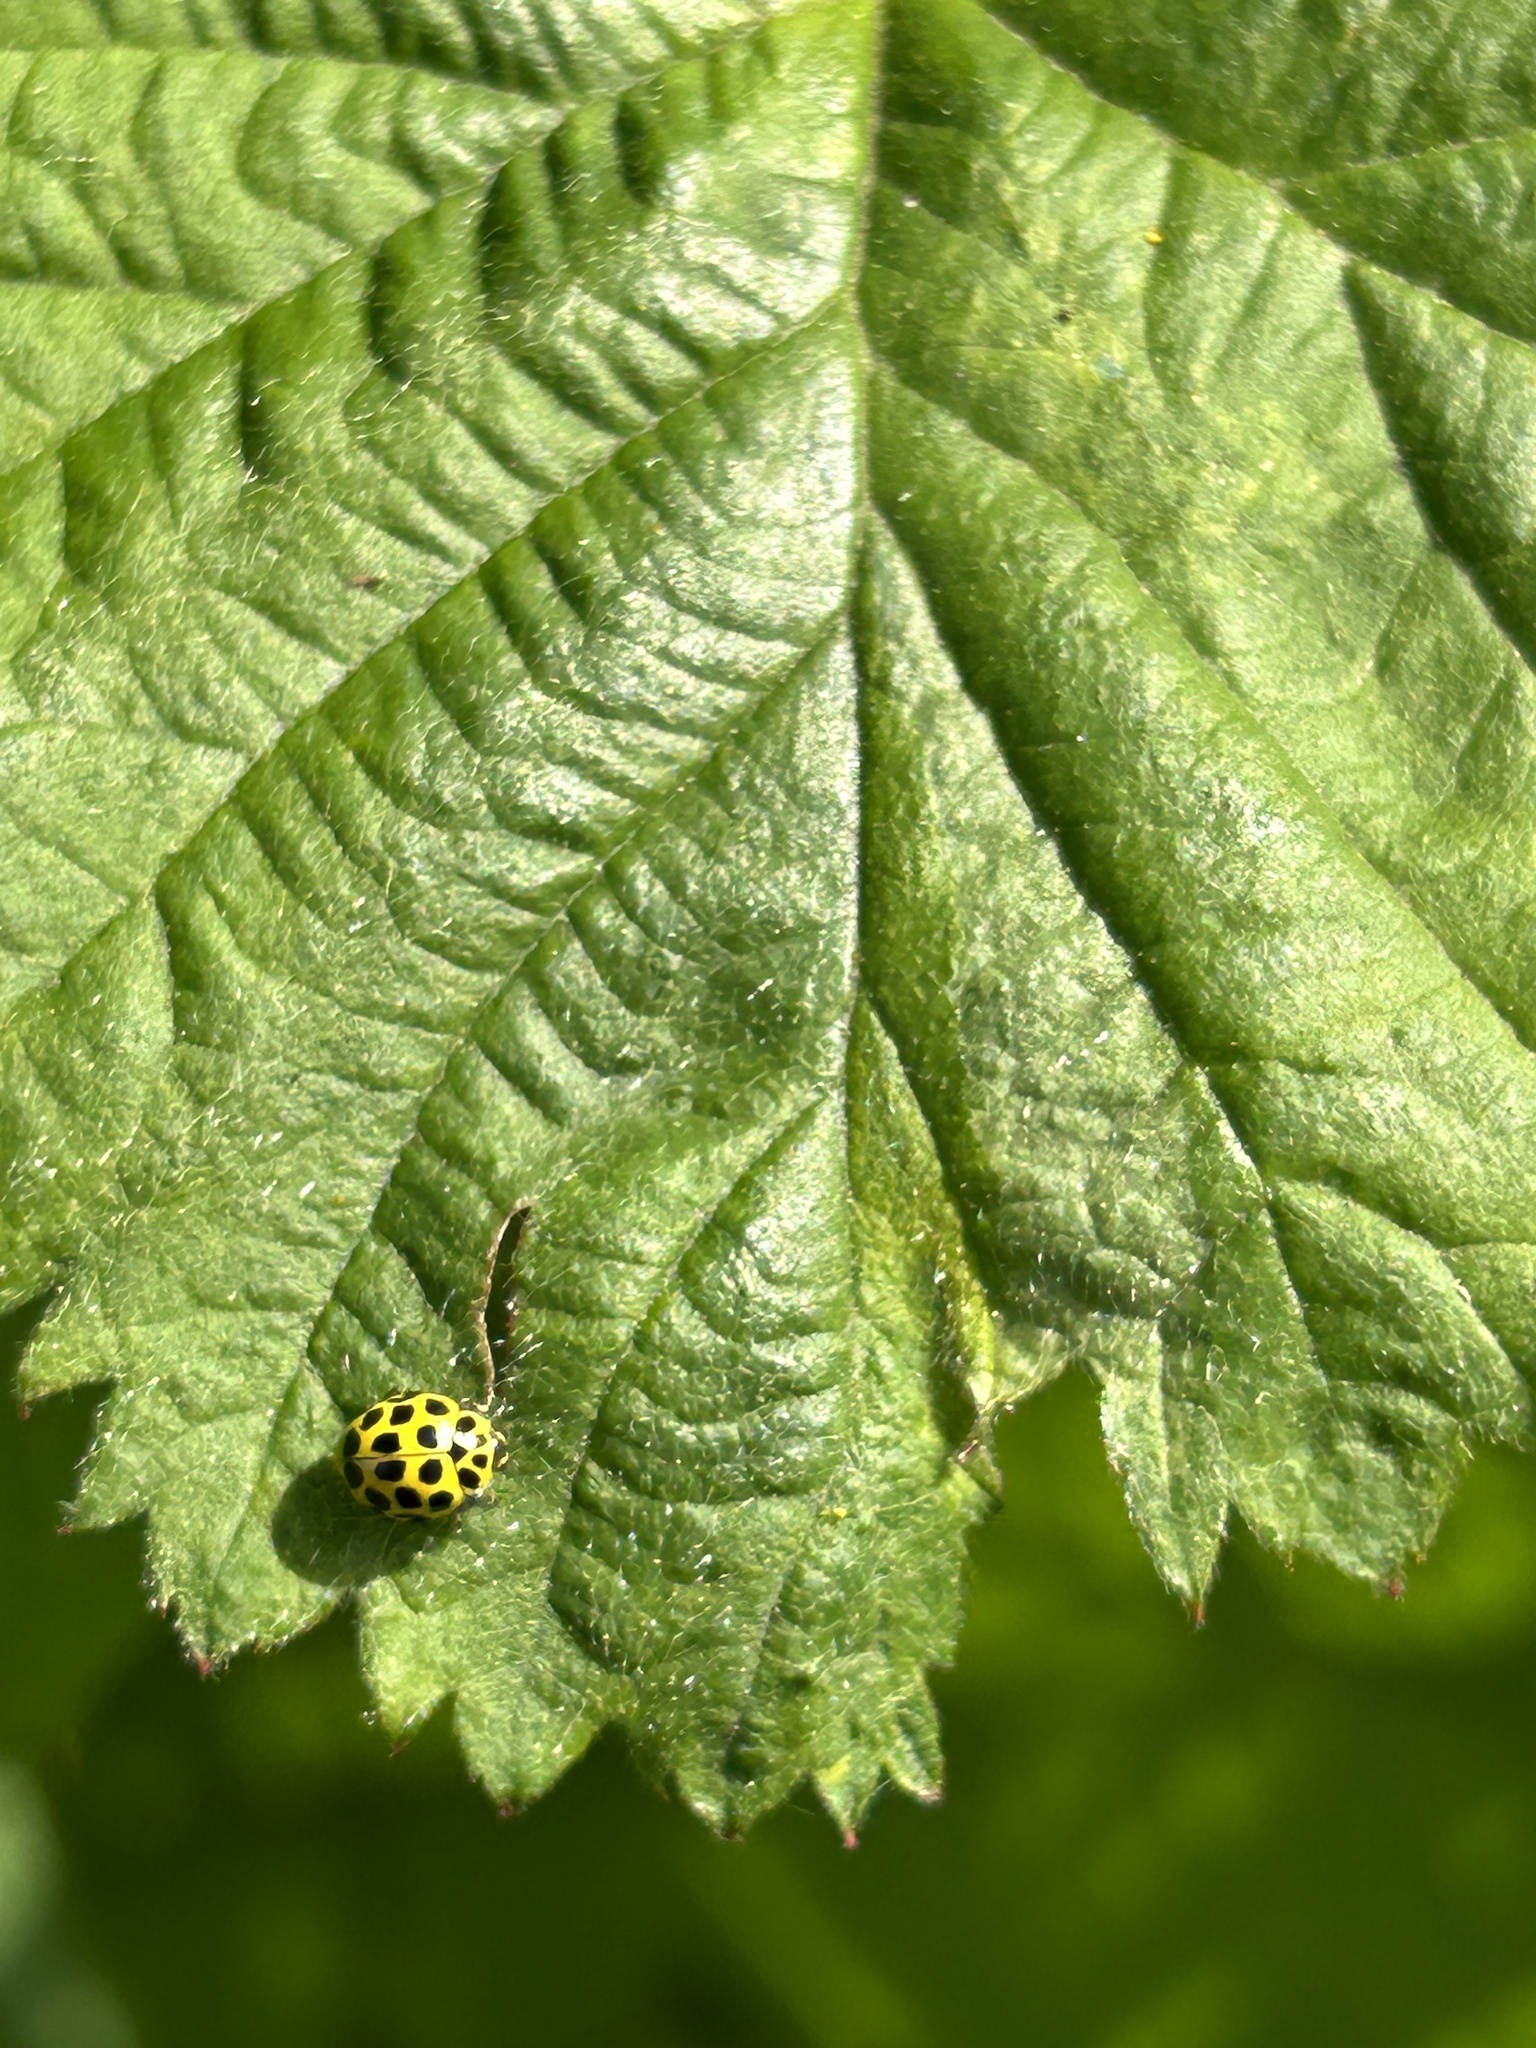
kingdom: Animalia
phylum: Arthropoda
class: Insecta
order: Coleoptera
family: Coccinellidae
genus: Psyllobora
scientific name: Psyllobora vigintiduopunctata
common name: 22-spot ladybird
